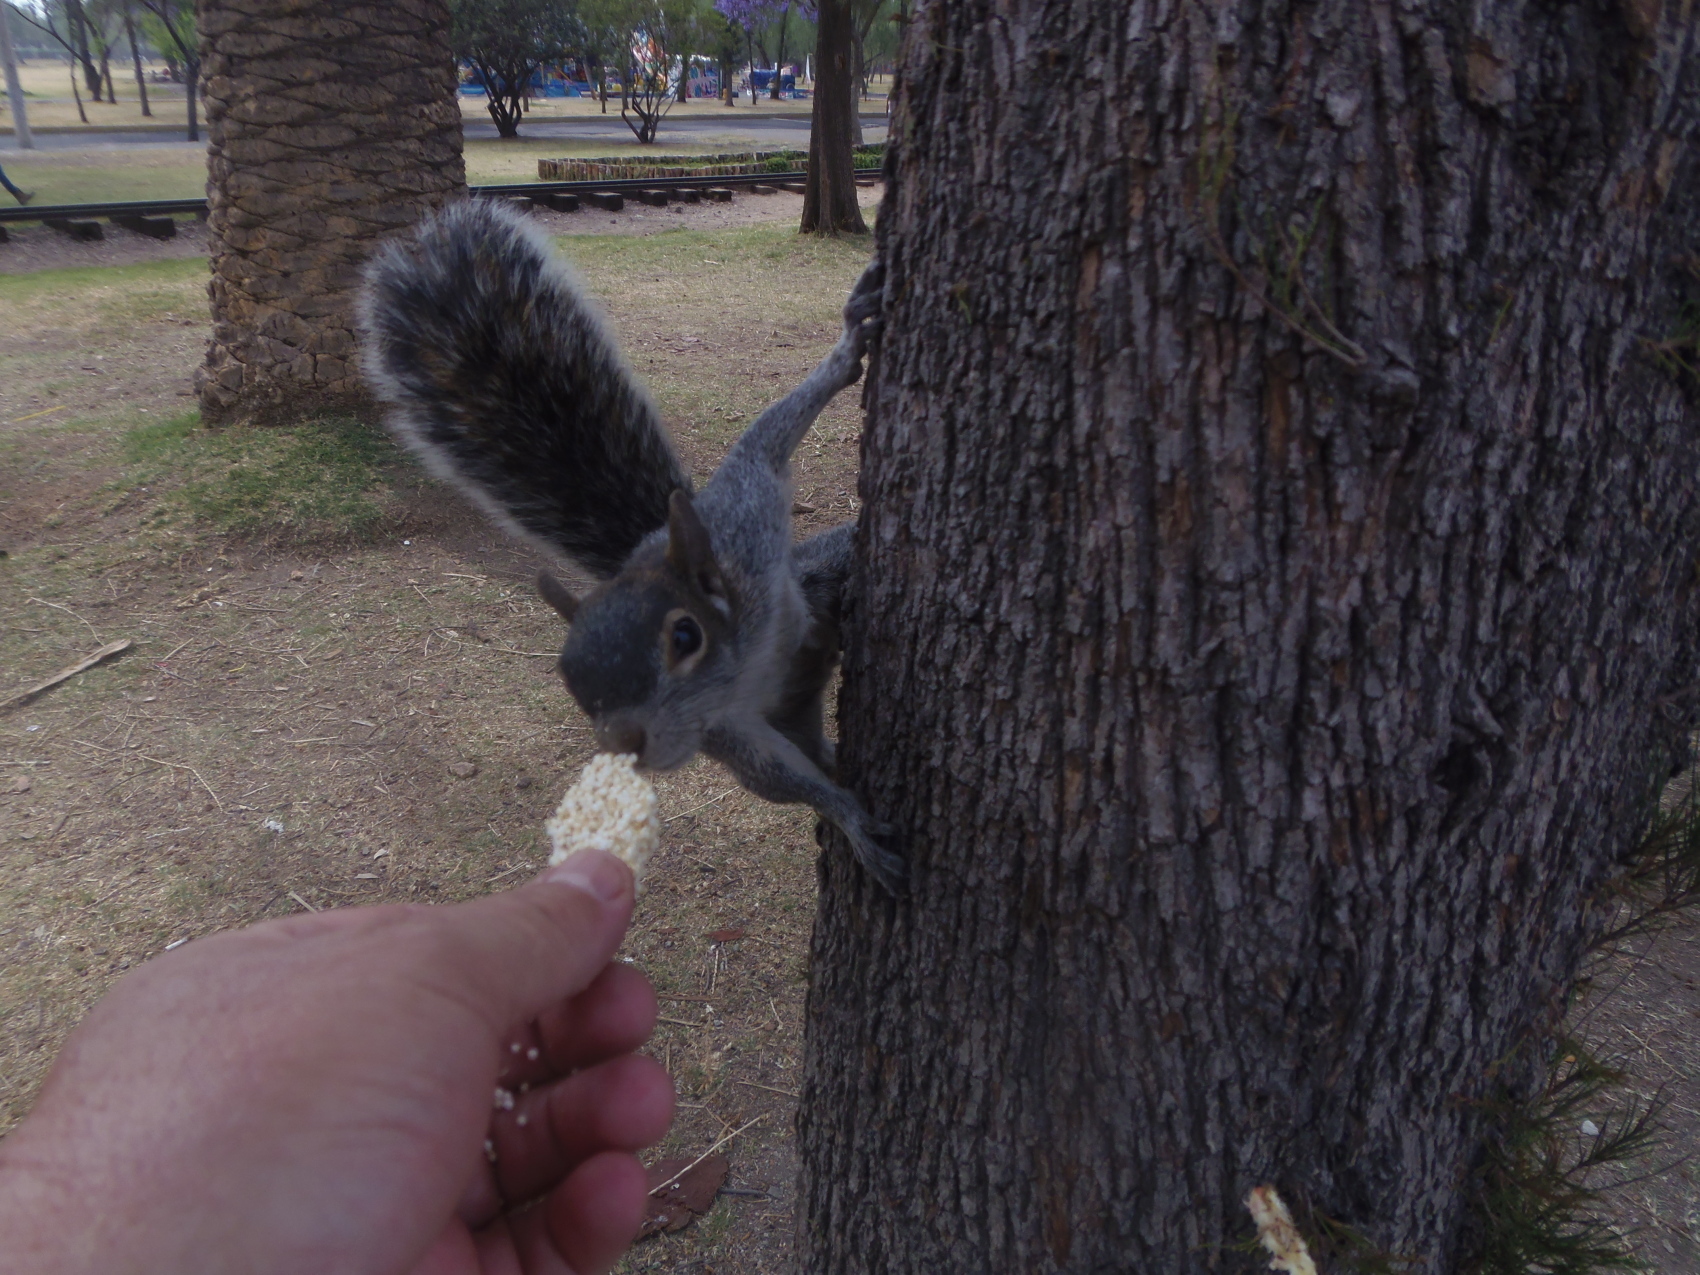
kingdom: Animalia
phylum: Chordata
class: Mammalia
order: Rodentia
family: Sciuridae
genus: Sciurus
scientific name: Sciurus aureogaster
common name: Red-bellied squirrel
